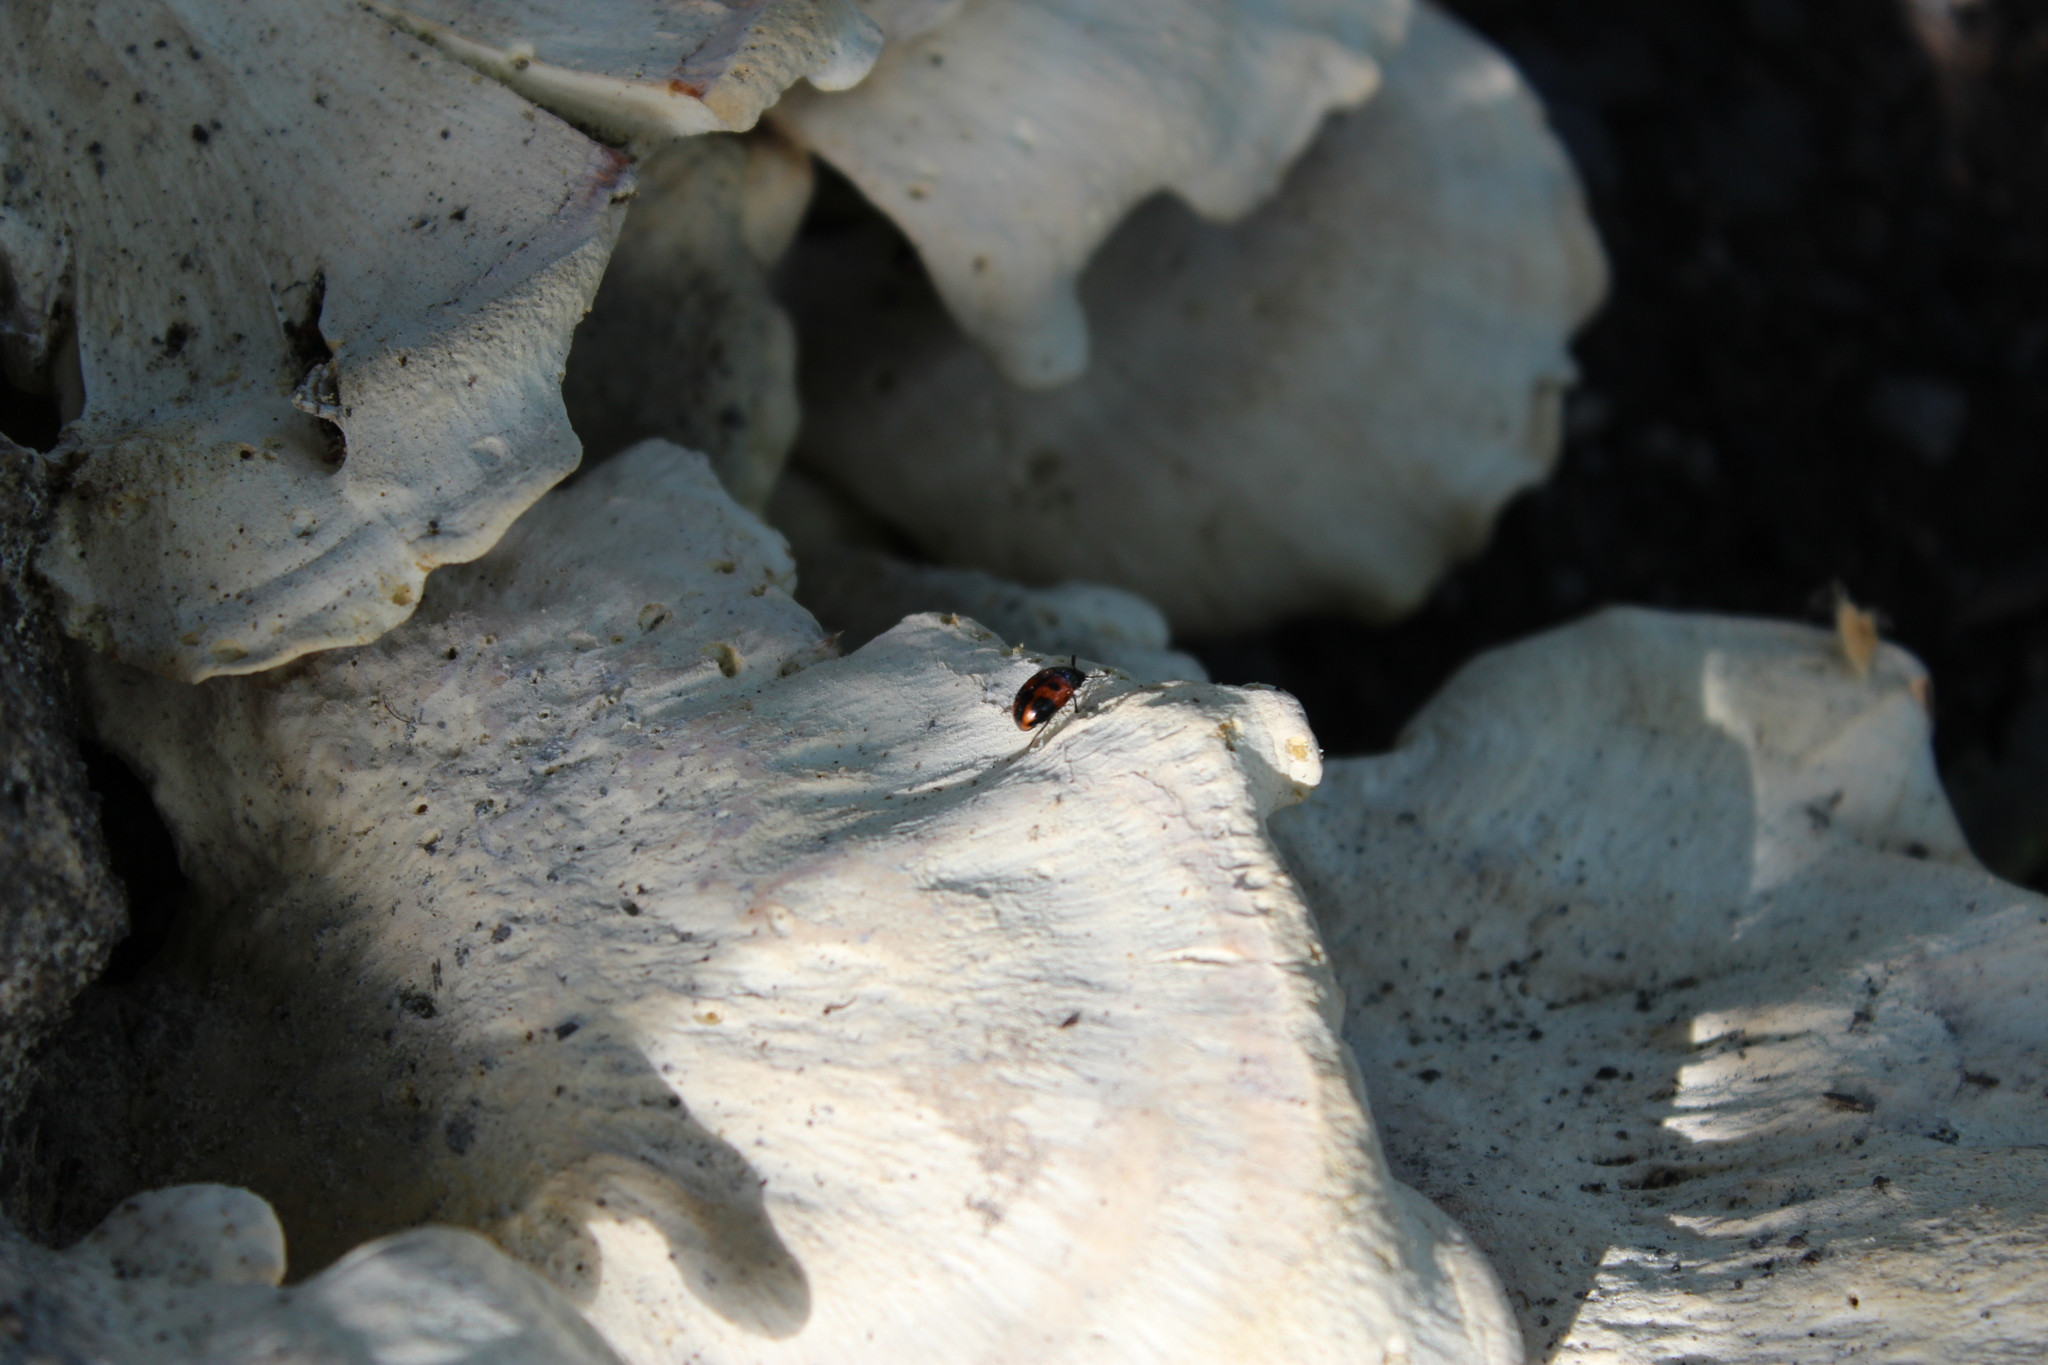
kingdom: Animalia
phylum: Arthropoda
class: Insecta
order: Coleoptera
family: Tenebrionidae
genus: Diaperis
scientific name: Diaperis maculata
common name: Darkling beetle
